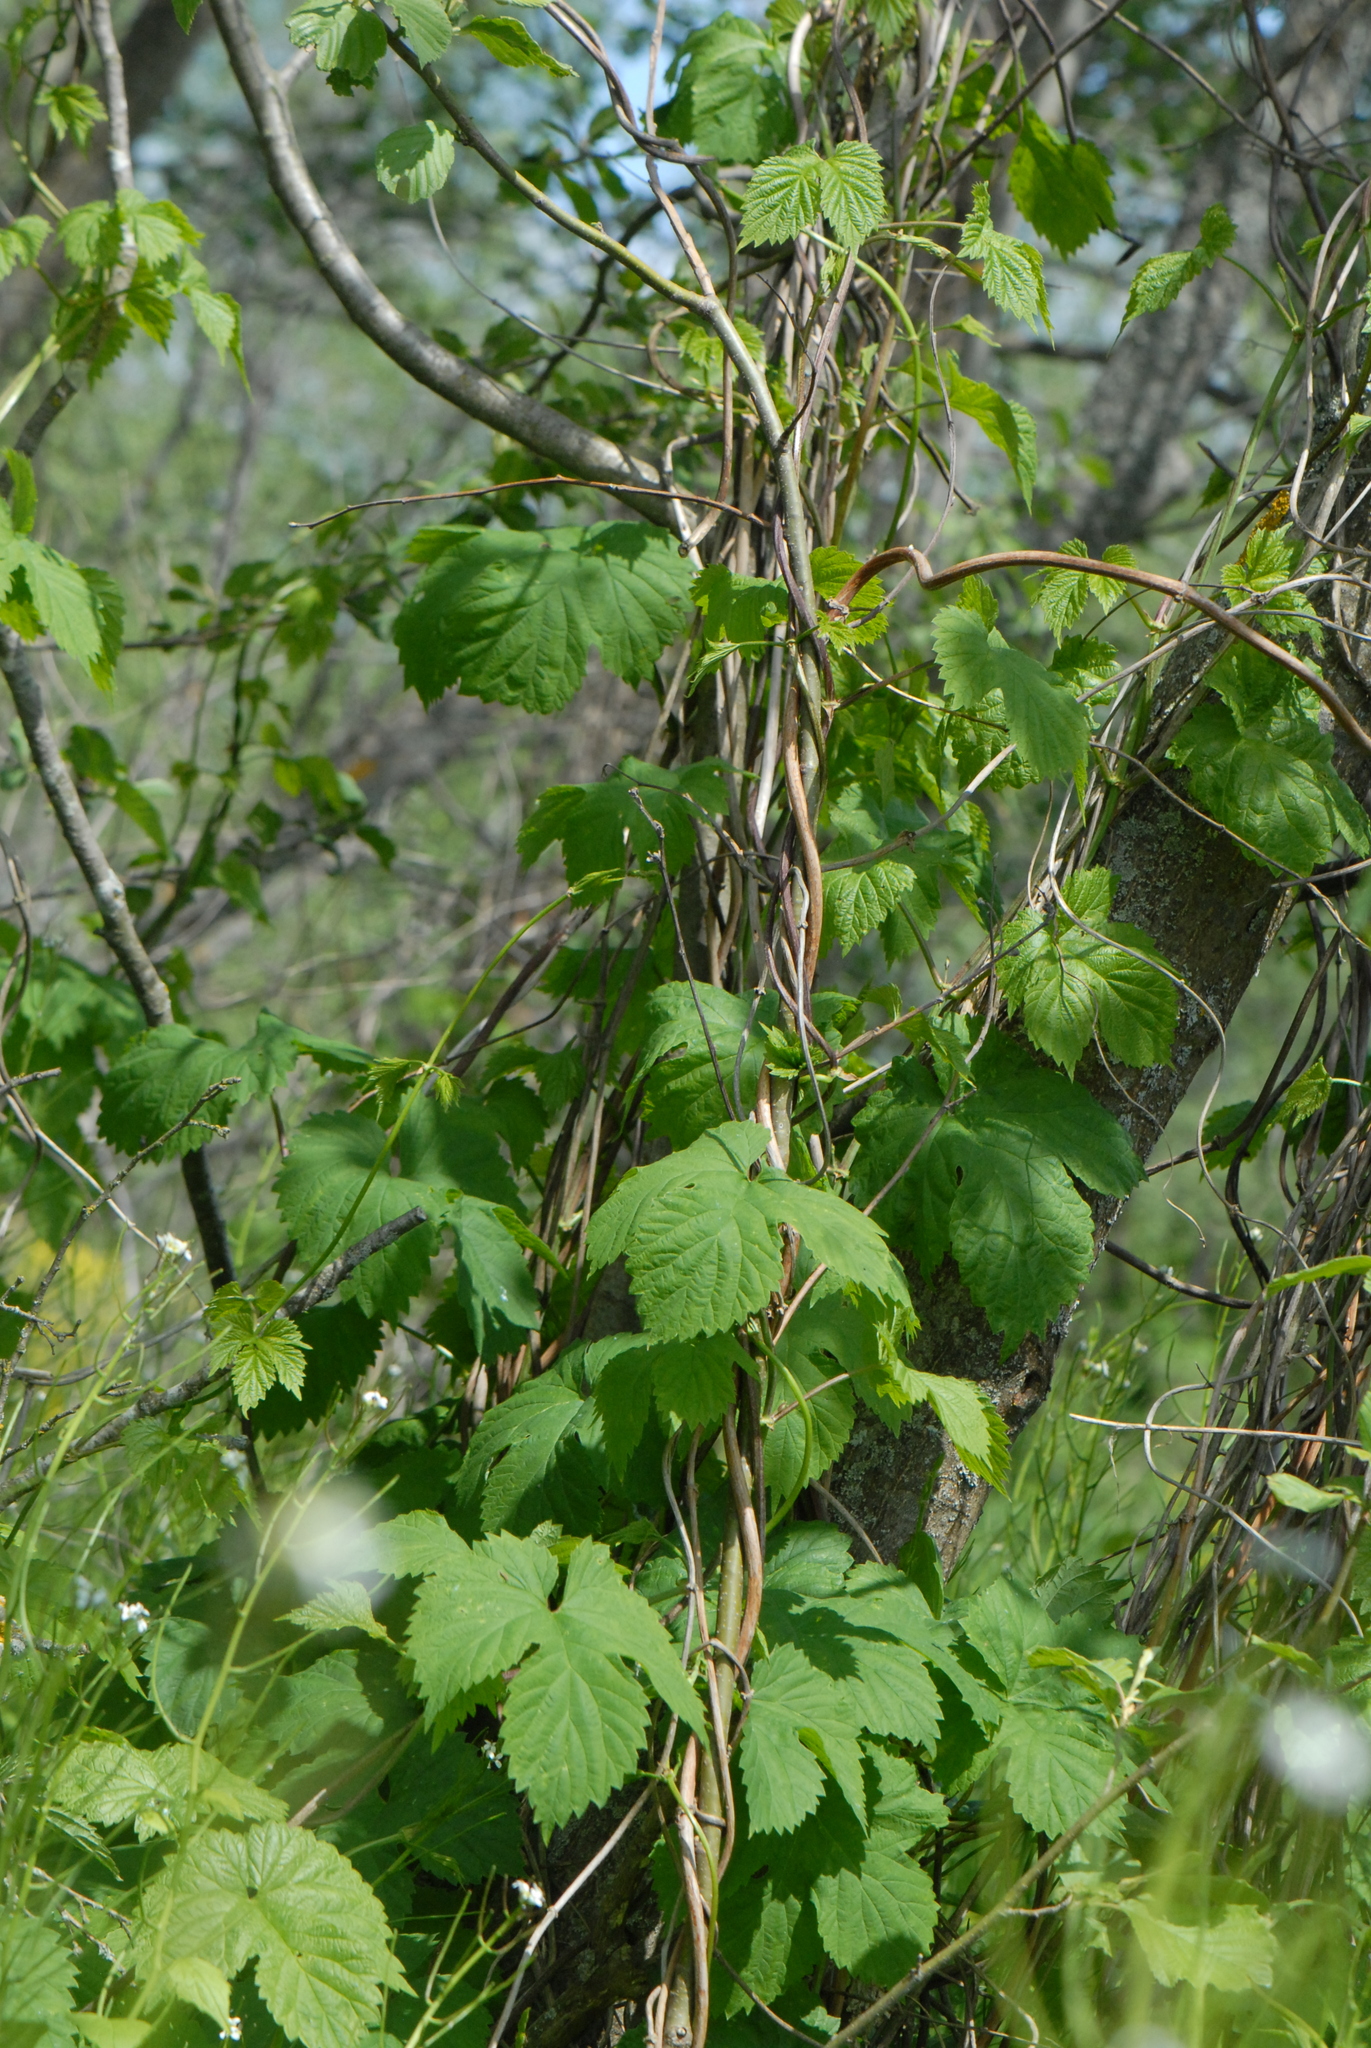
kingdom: Plantae
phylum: Tracheophyta
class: Magnoliopsida
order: Rosales
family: Cannabaceae
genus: Humulus
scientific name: Humulus lupulus
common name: Hop
